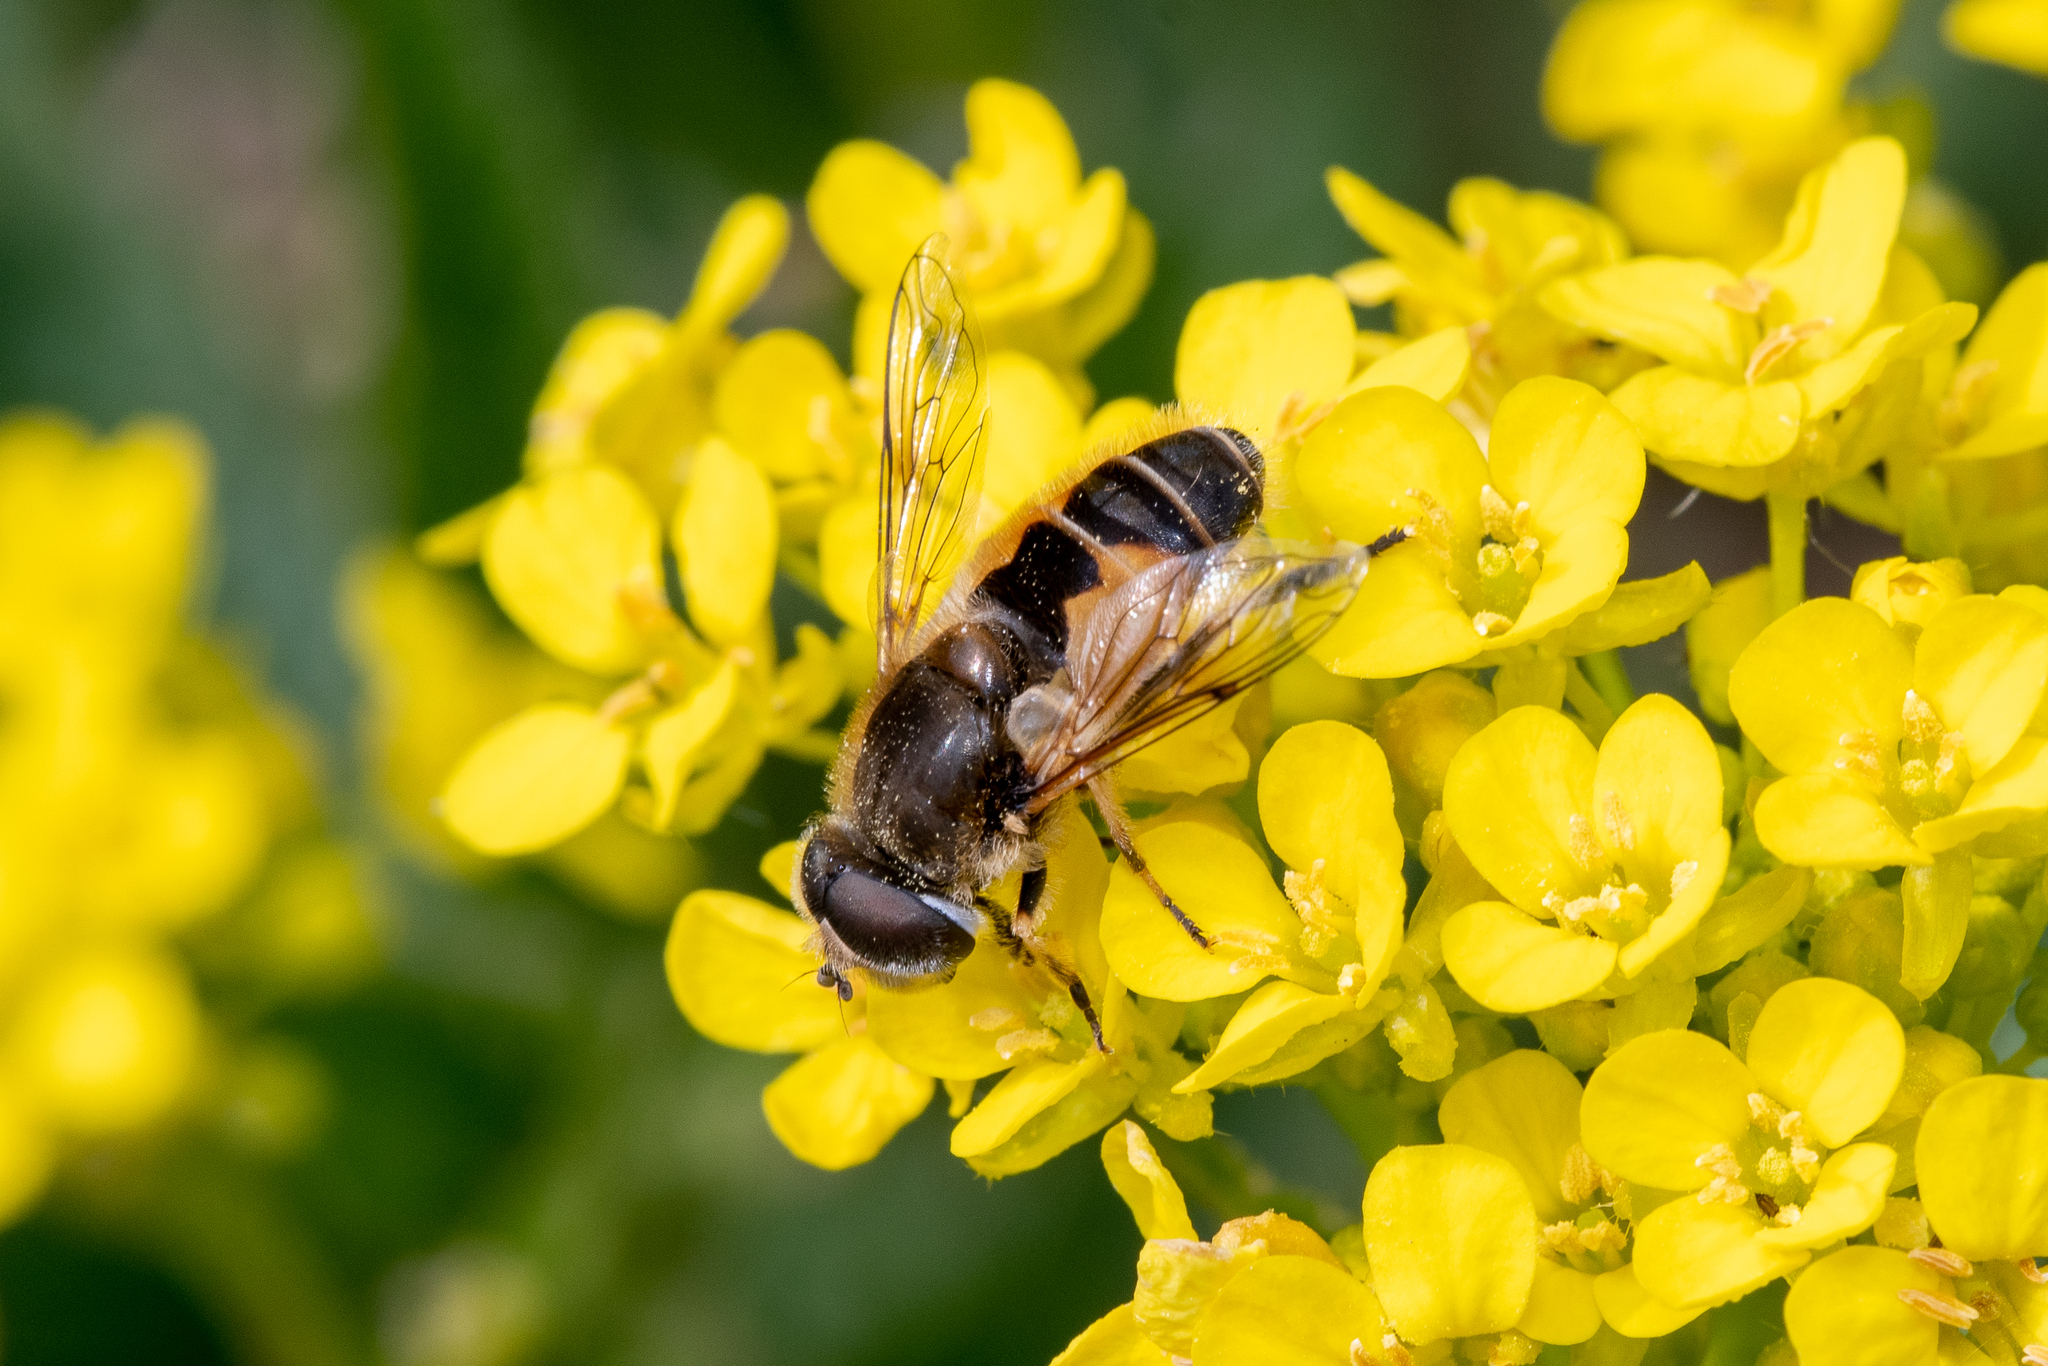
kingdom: Animalia
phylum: Arthropoda
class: Insecta
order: Diptera
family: Syrphidae
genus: Eristalis
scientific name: Eristalis arbustorum
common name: Hover fly
